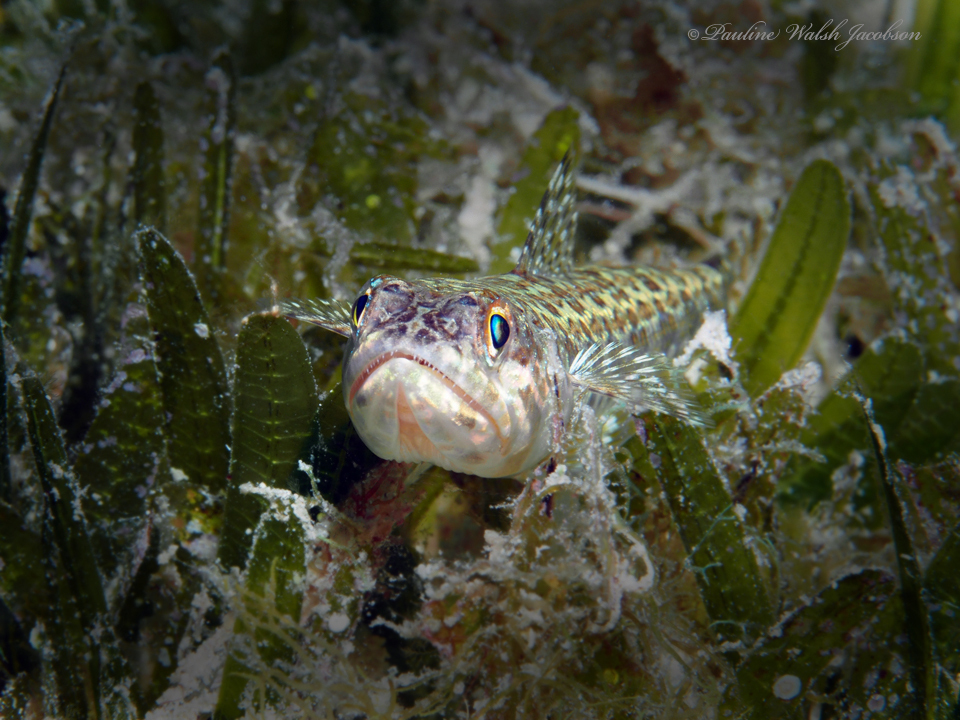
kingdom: Animalia
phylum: Chordata
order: Aulopiformes
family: Synodontidae
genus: Synodus
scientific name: Synodus intermedius
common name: Sand diver
